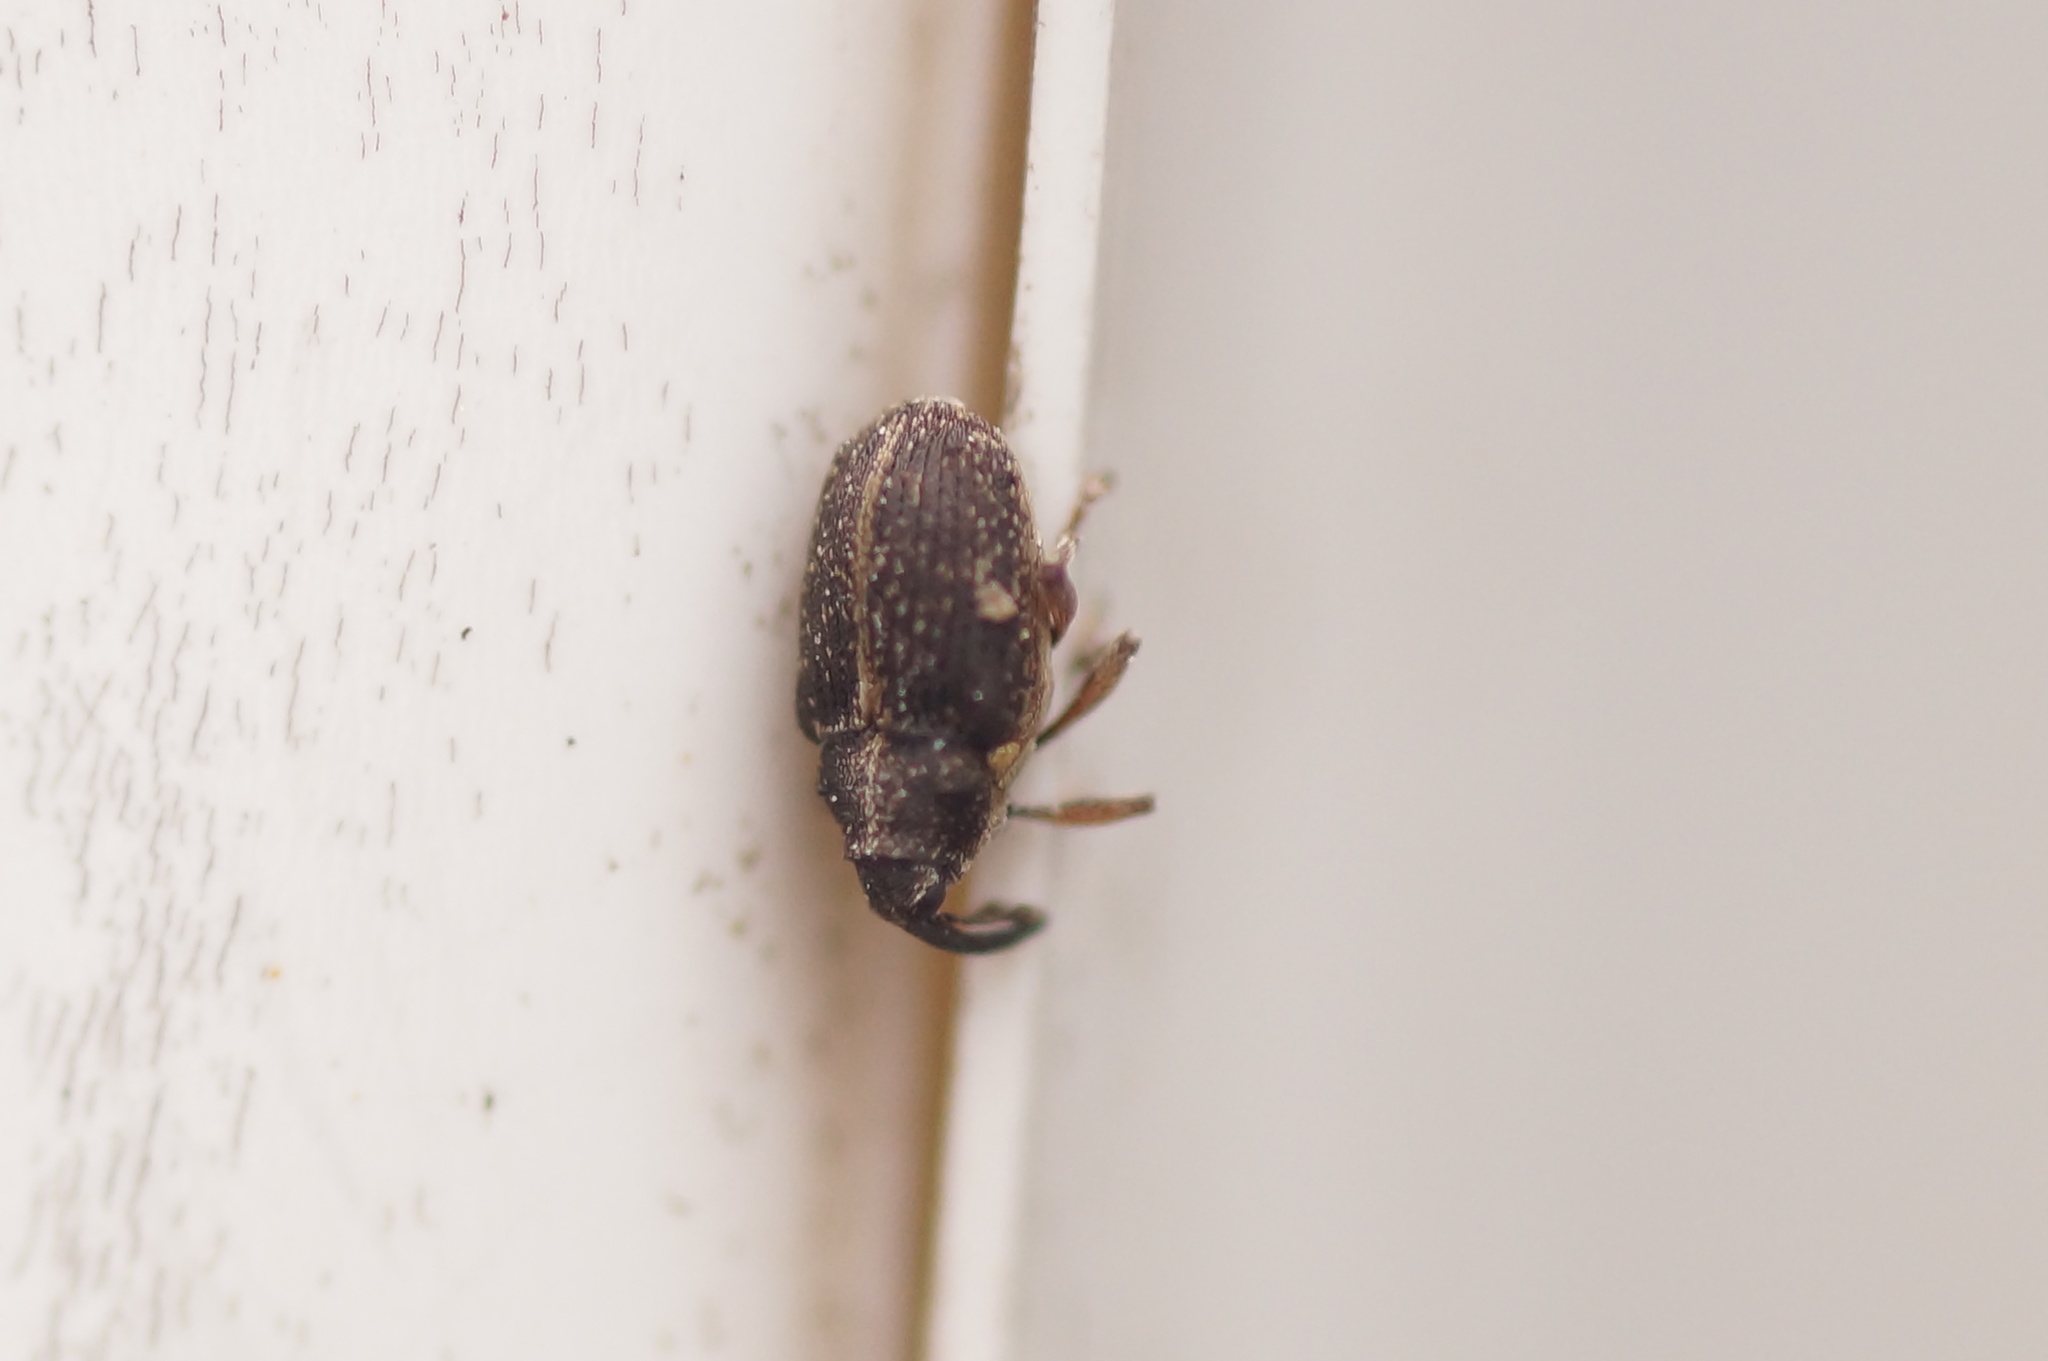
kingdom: Animalia
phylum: Arthropoda
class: Insecta
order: Coleoptera
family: Curculionidae
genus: Oprohinus
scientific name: Oprohinus suturalis
